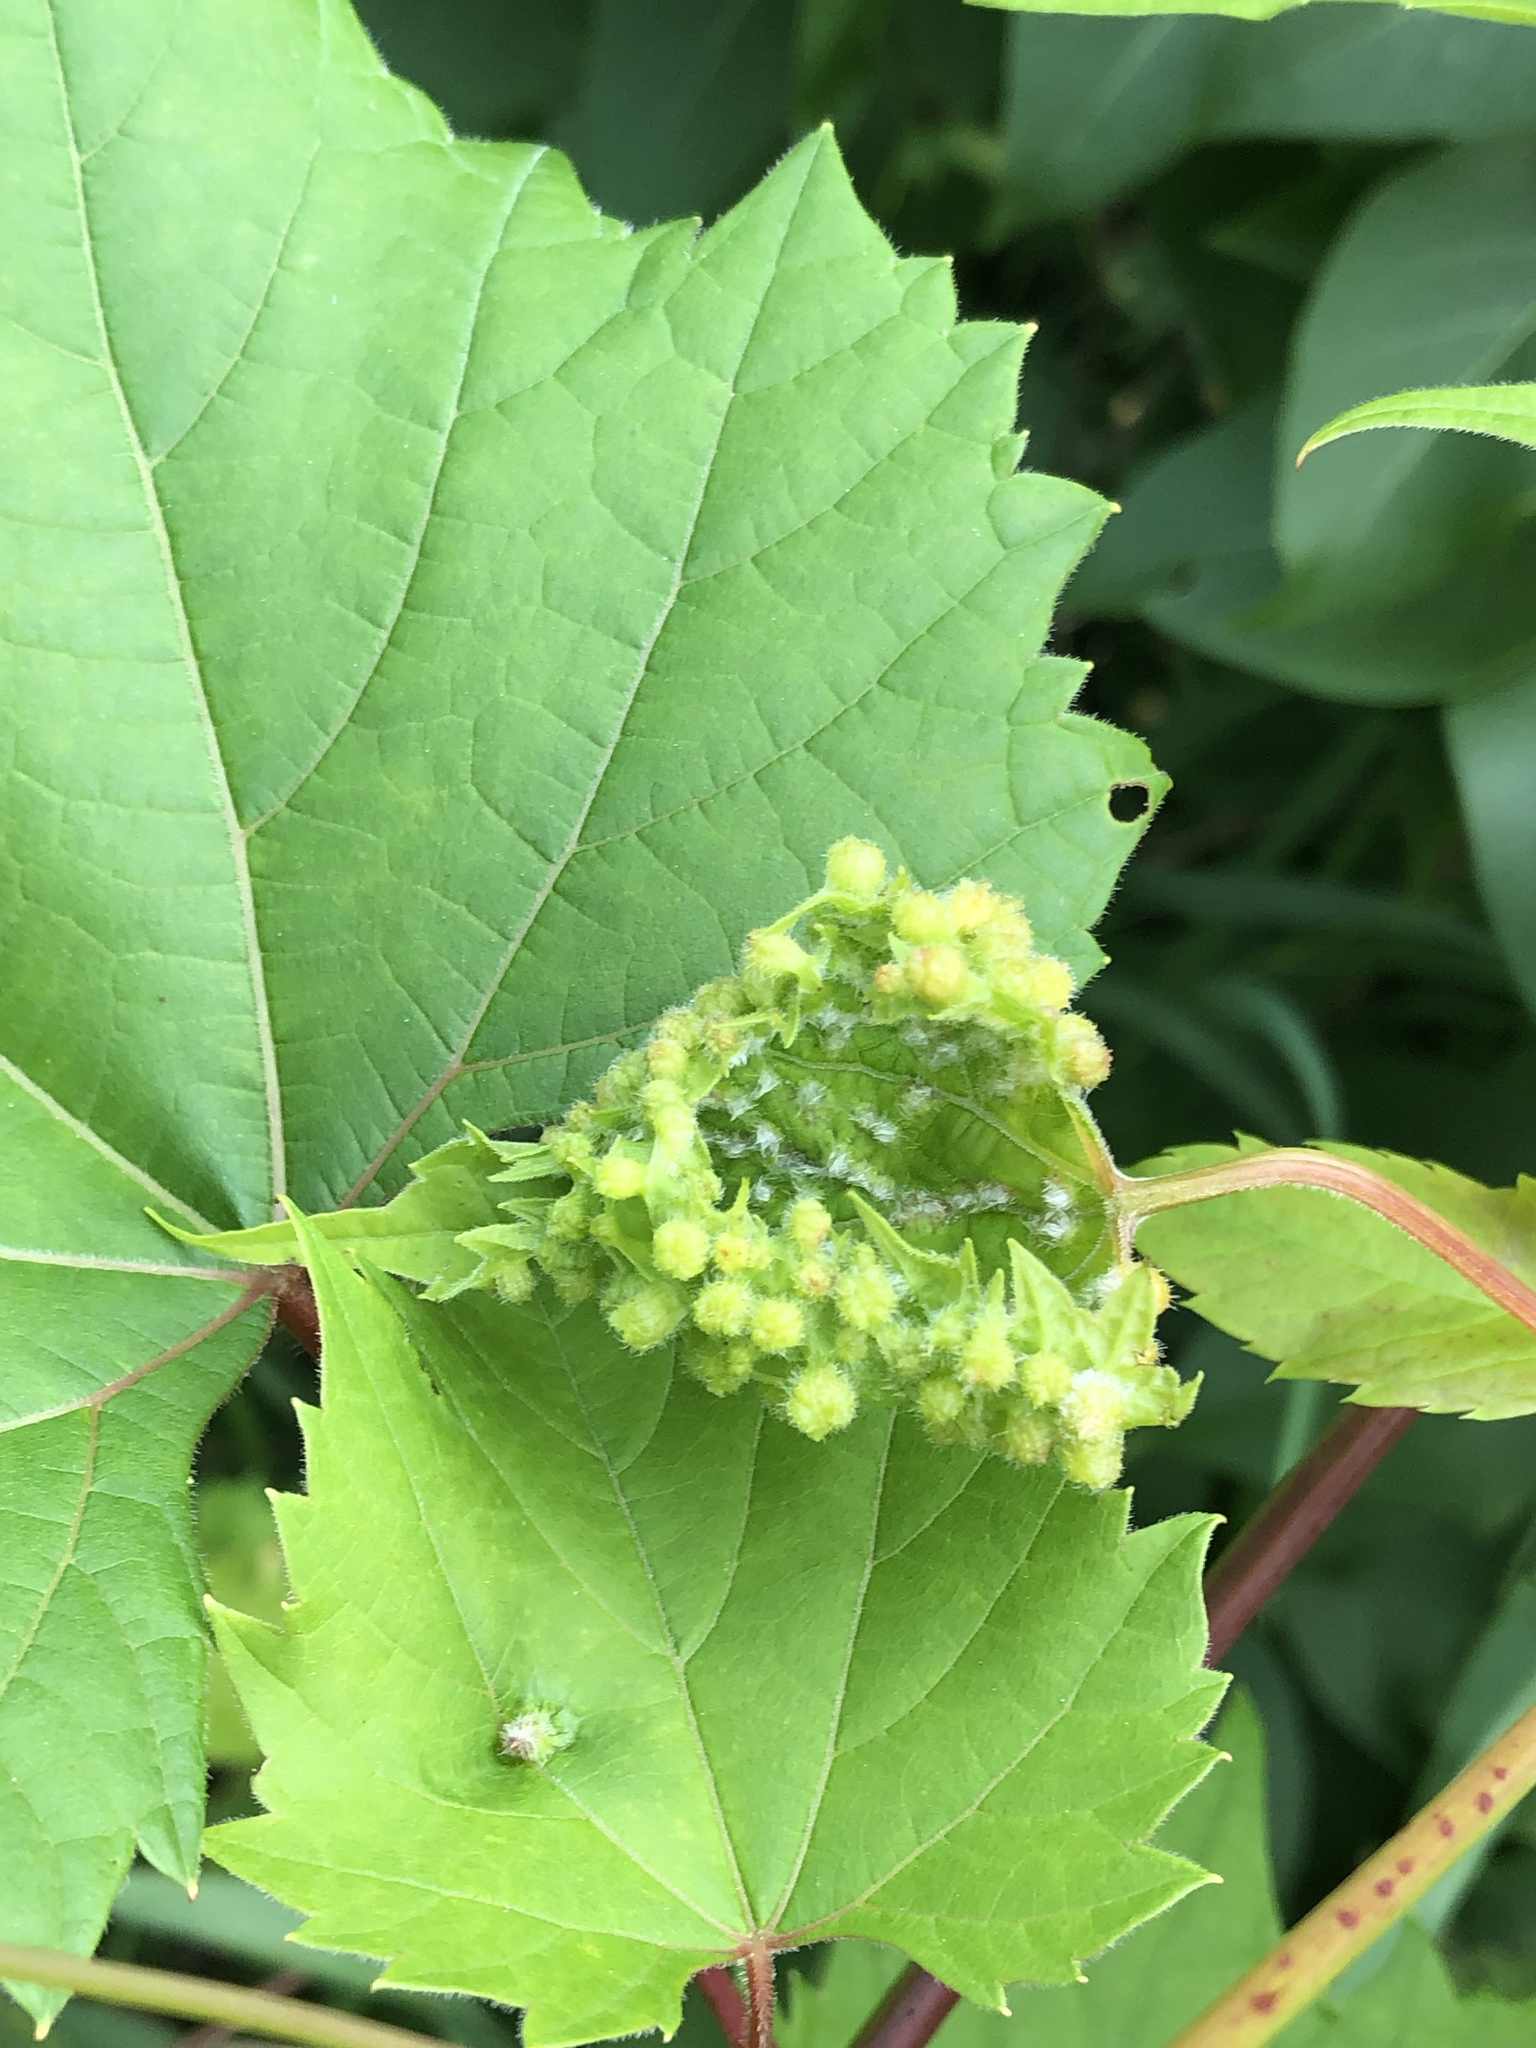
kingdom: Animalia
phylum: Arthropoda
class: Insecta
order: Hemiptera
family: Phylloxeridae
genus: Daktulosphaira
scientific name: Daktulosphaira vitifoliae
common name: Grape phylloxera
